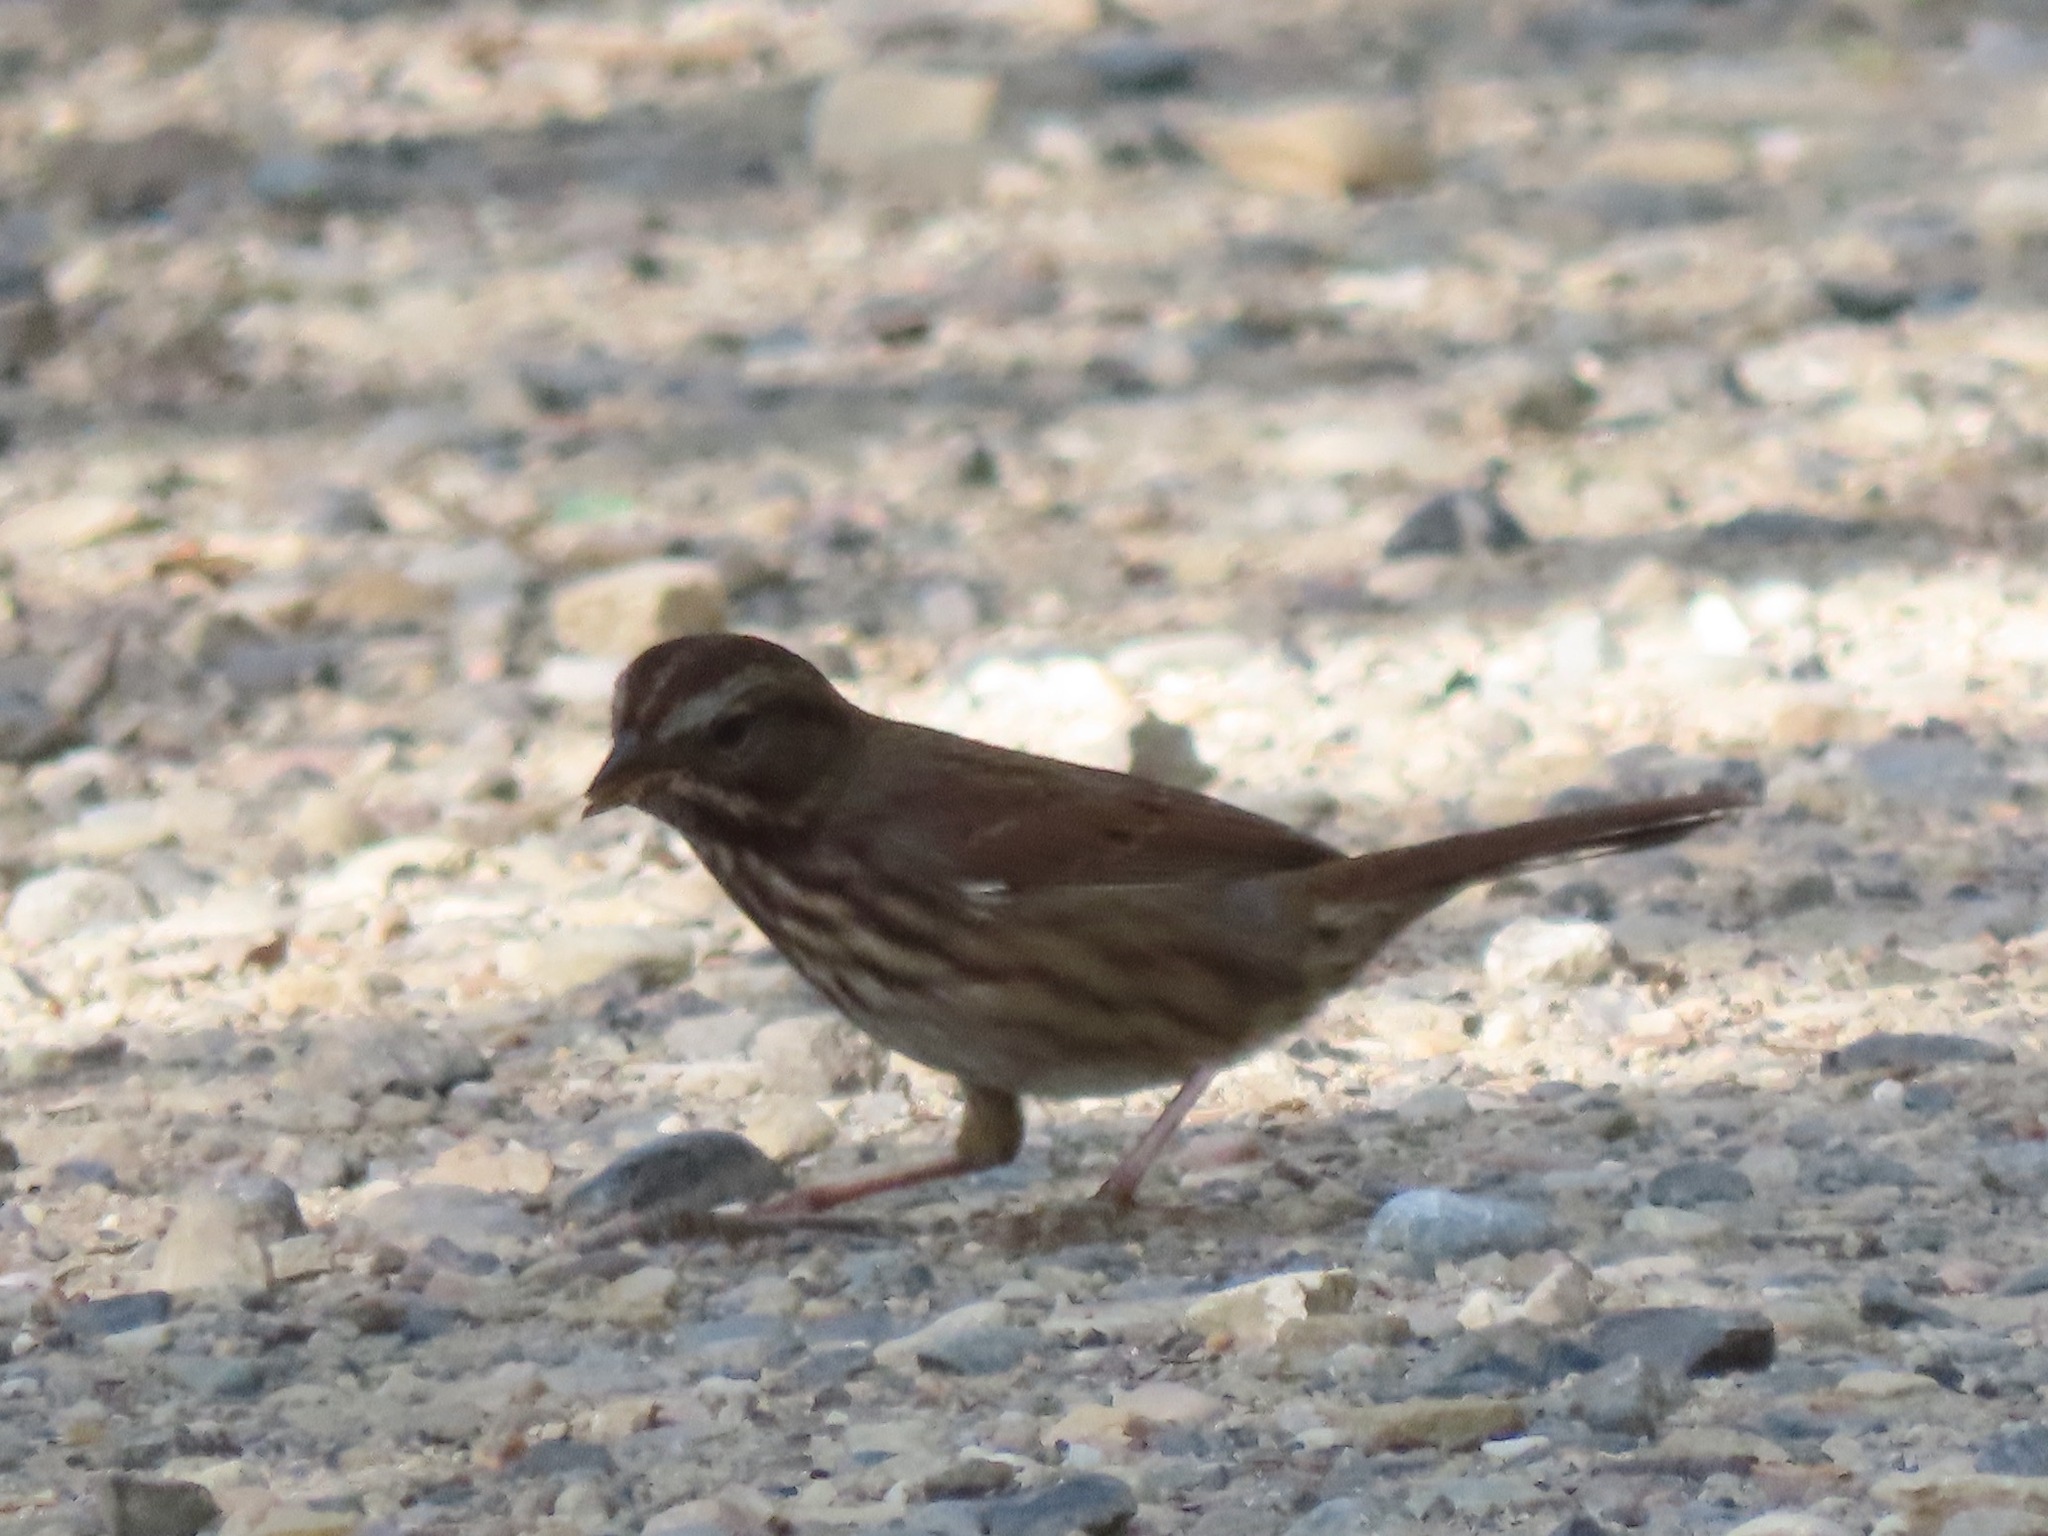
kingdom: Animalia
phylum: Chordata
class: Aves
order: Passeriformes
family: Passerellidae
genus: Melospiza
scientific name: Melospiza melodia
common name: Song sparrow
